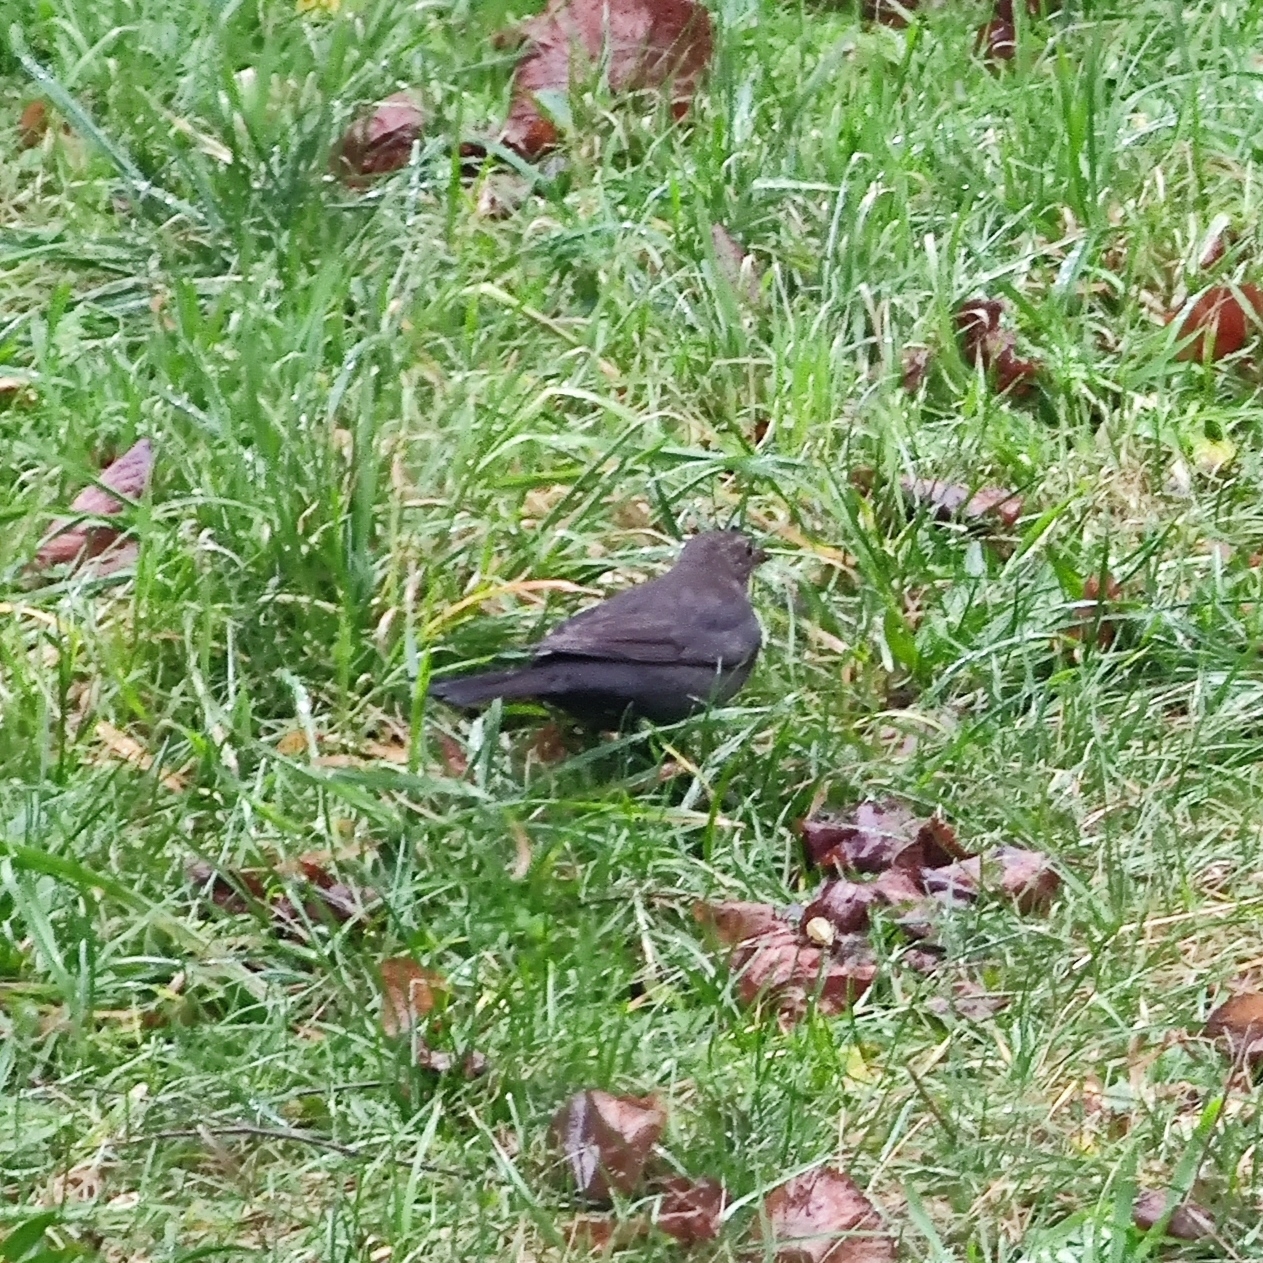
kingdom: Animalia
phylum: Chordata
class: Aves
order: Passeriformes
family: Turdidae
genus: Turdus
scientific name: Turdus merula
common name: Common blackbird
